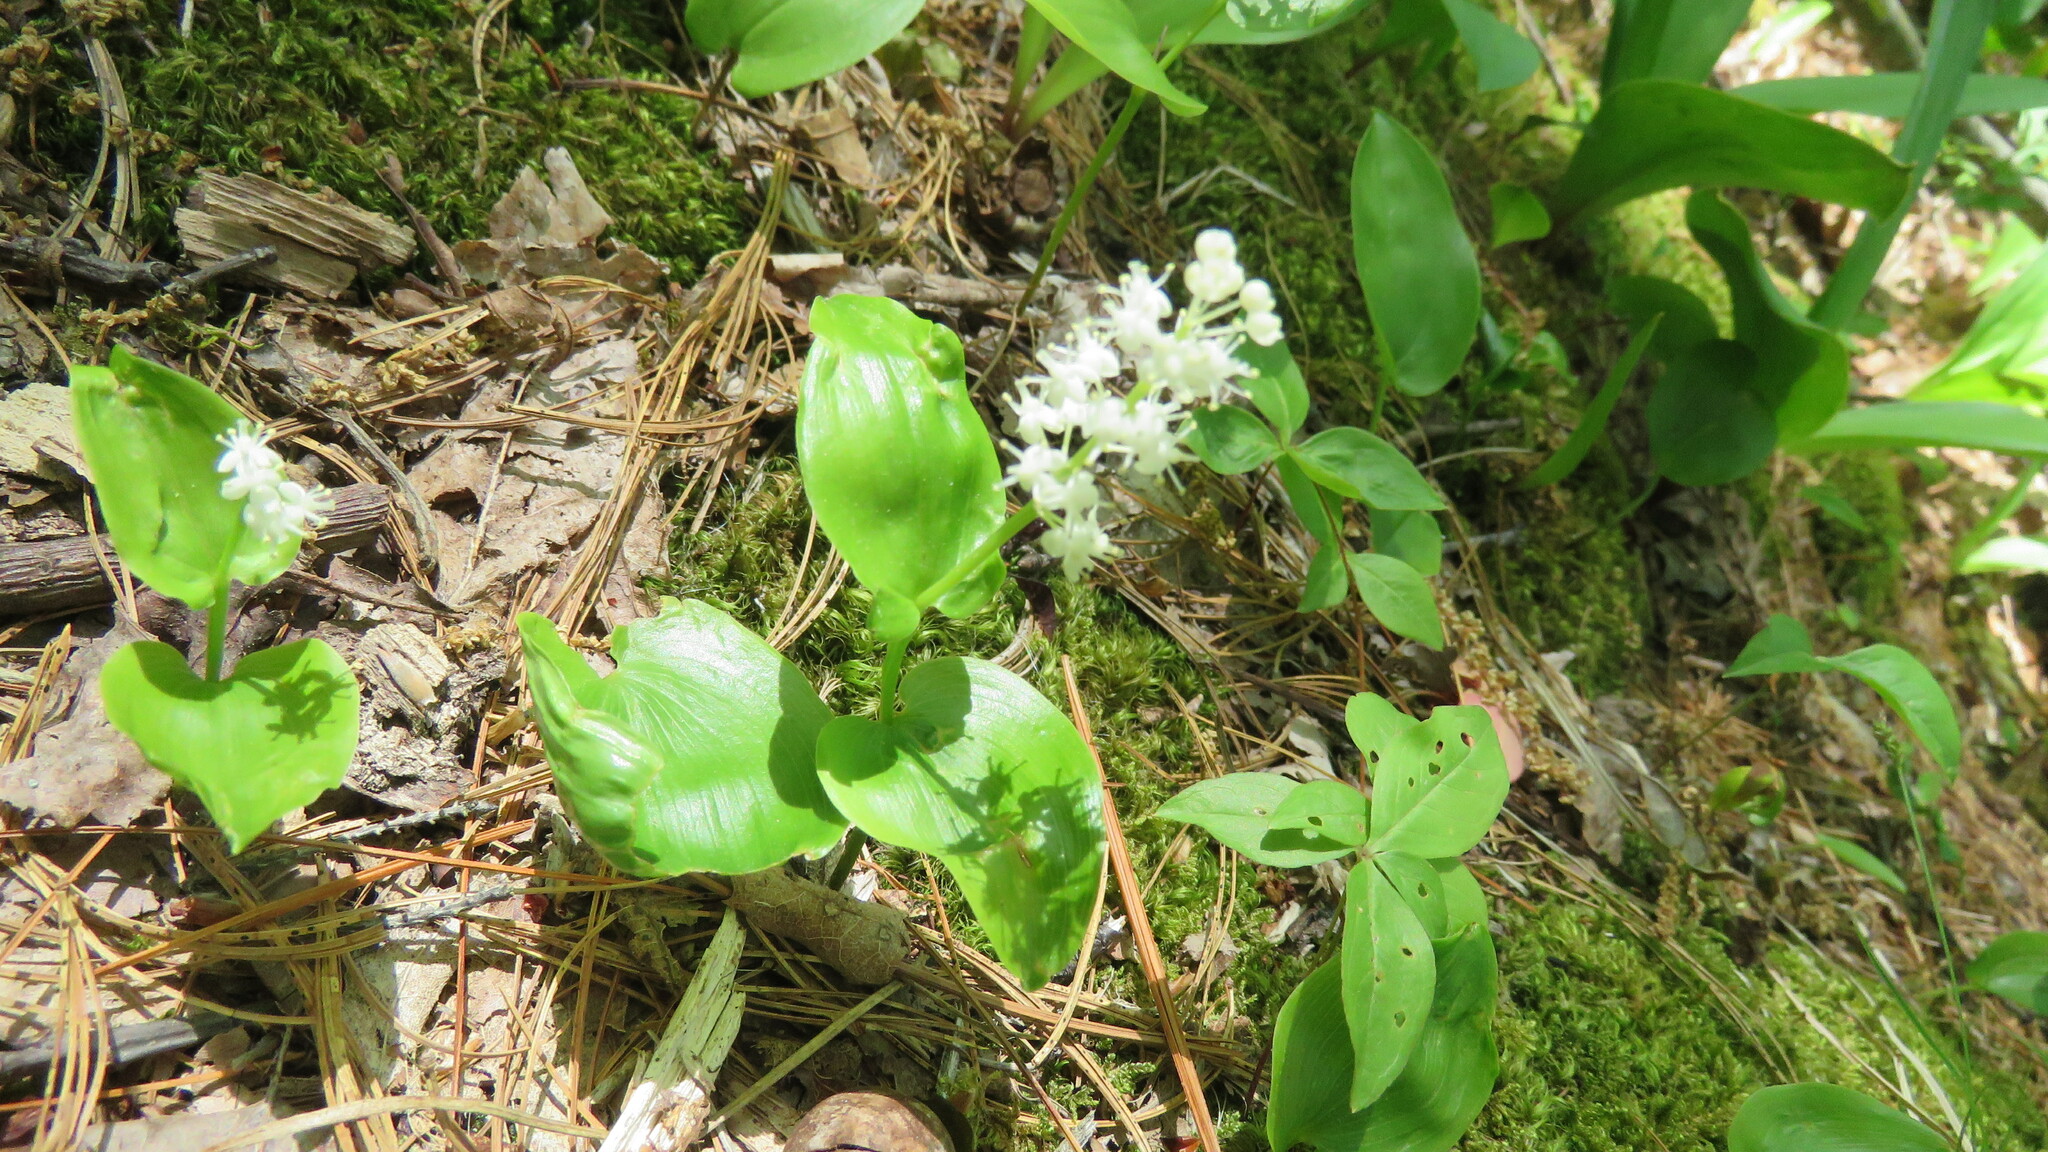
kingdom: Plantae
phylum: Tracheophyta
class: Liliopsida
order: Asparagales
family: Asparagaceae
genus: Maianthemum
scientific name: Maianthemum canadense
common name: False lily-of-the-valley
